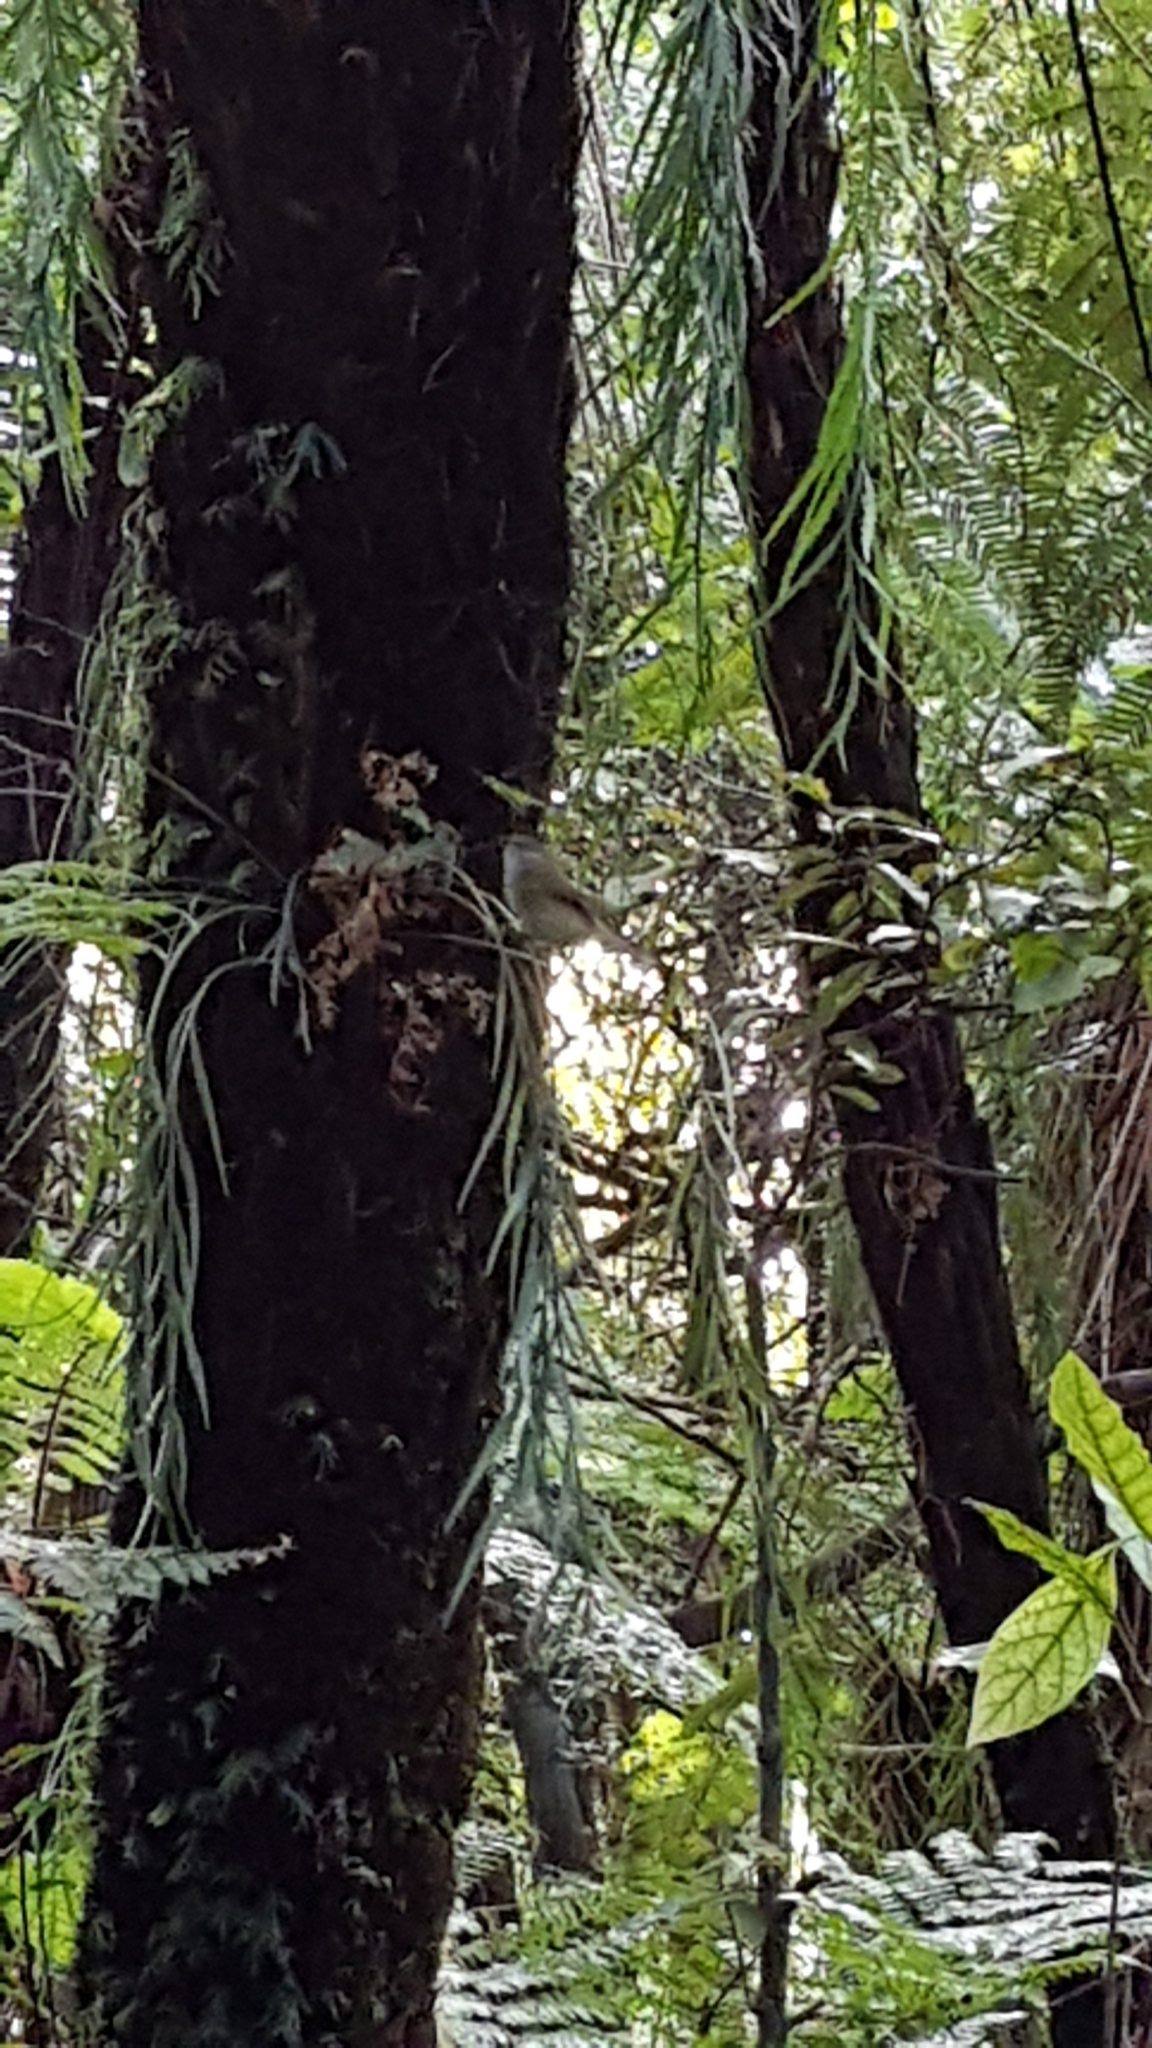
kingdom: Animalia
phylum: Chordata
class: Aves
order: Passeriformes
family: Acanthizidae
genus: Gerygone
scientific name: Gerygone igata
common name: Grey gerygone
